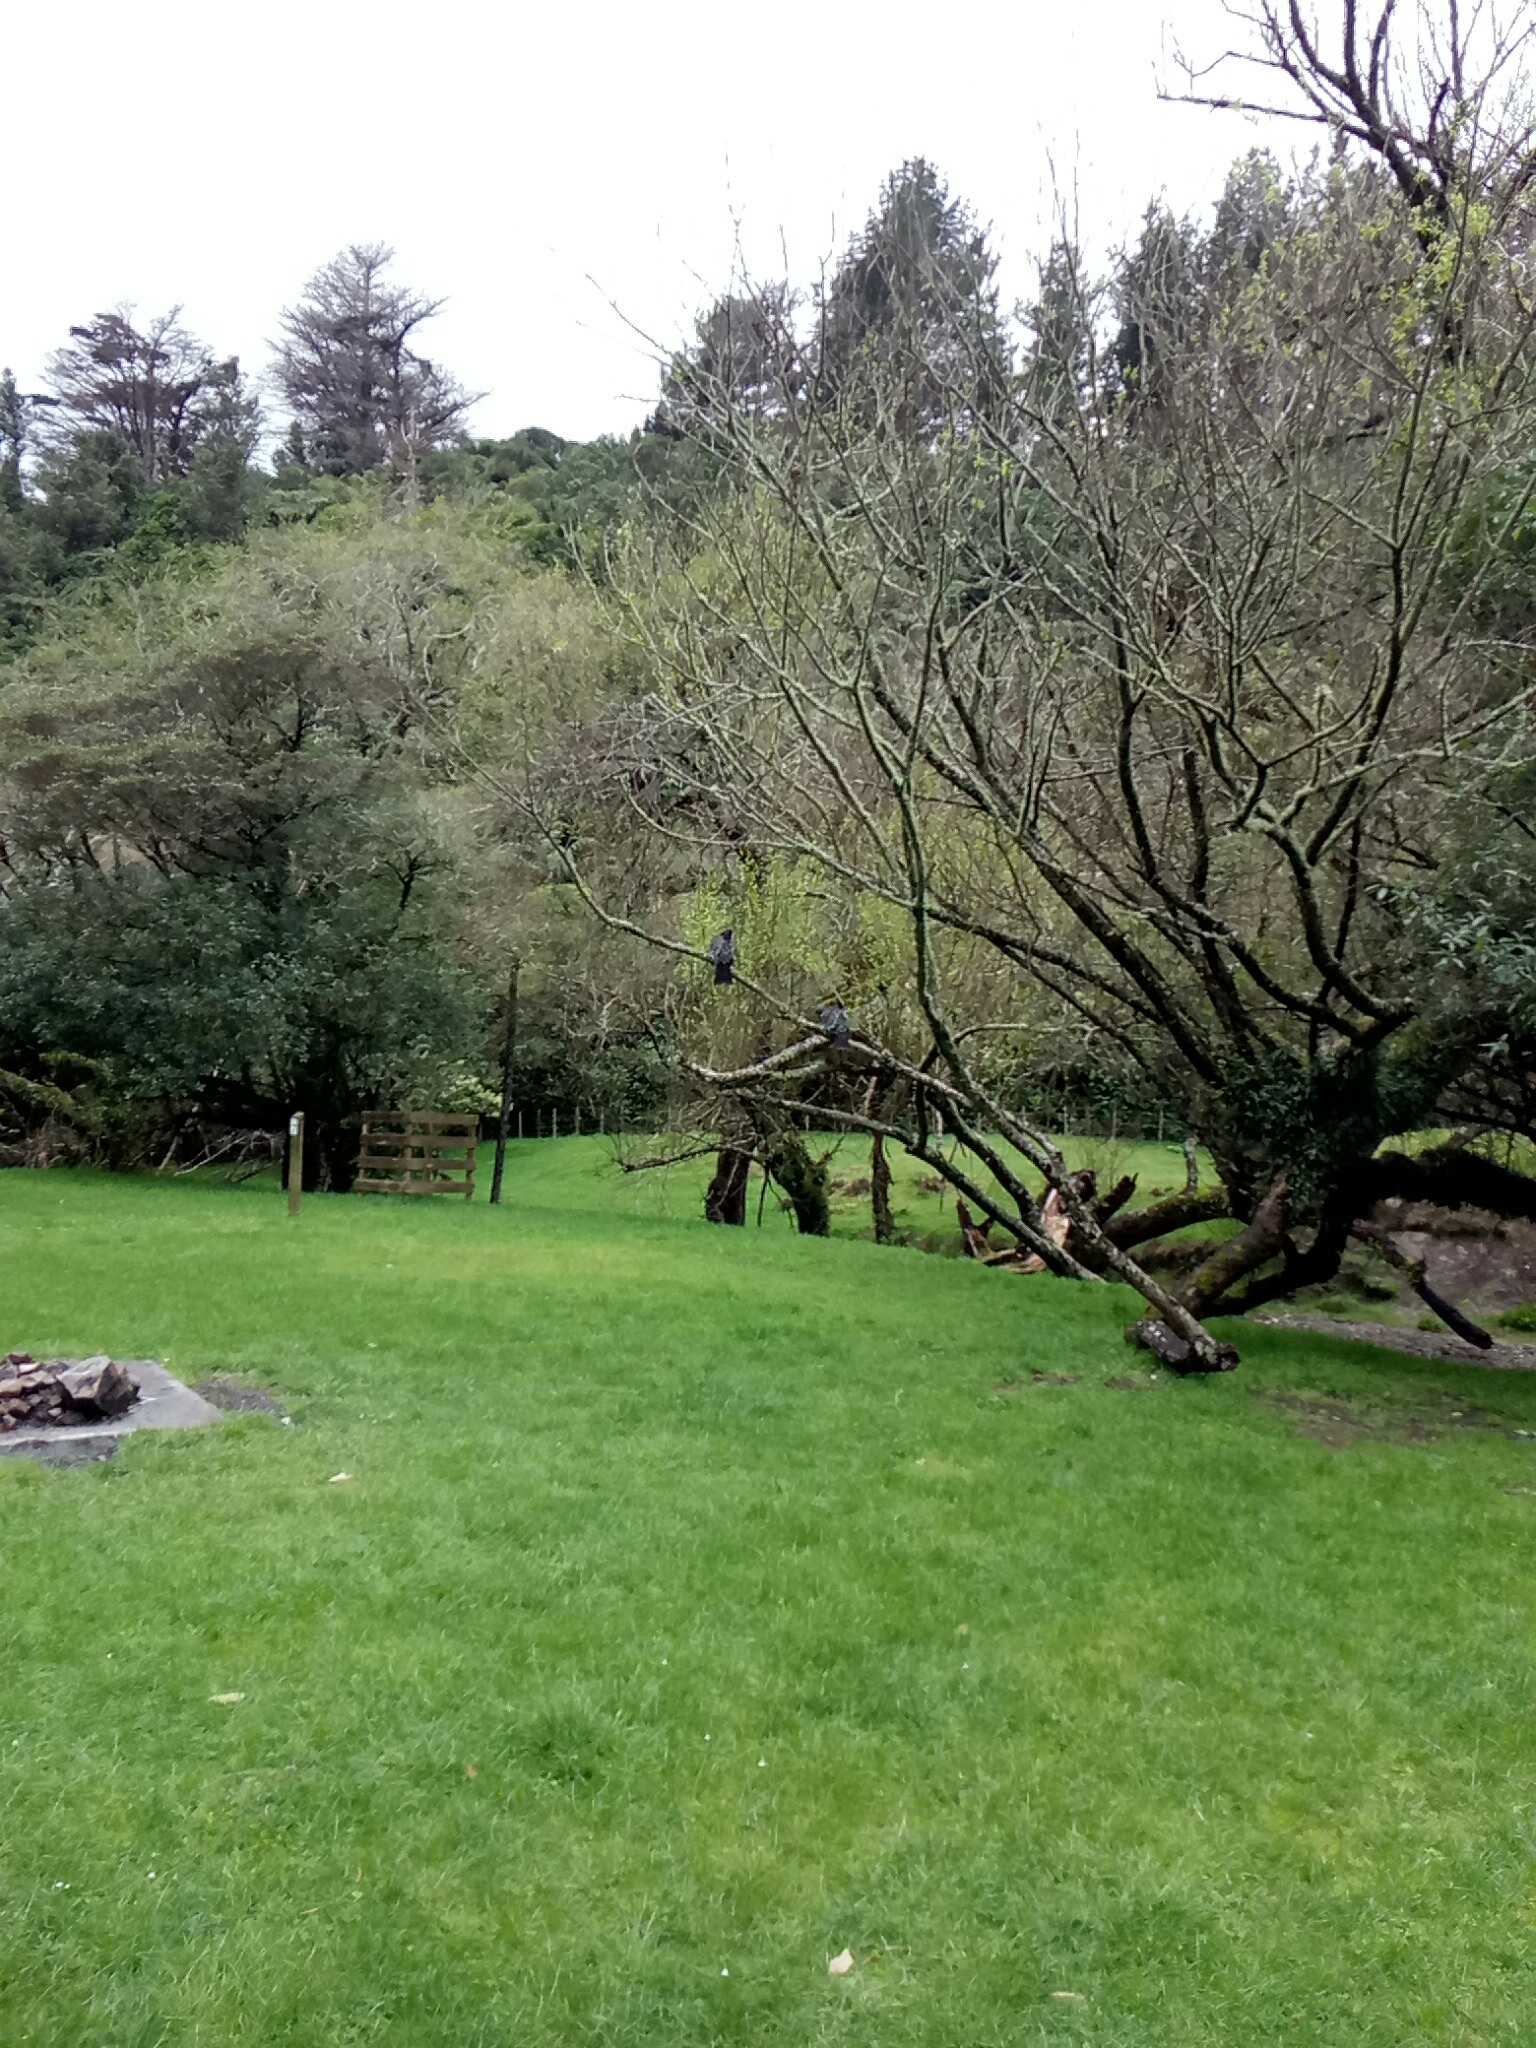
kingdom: Animalia
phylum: Chordata
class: Aves
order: Columbiformes
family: Columbidae
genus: Hemiphaga
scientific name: Hemiphaga novaeseelandiae
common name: New zealand pigeon
